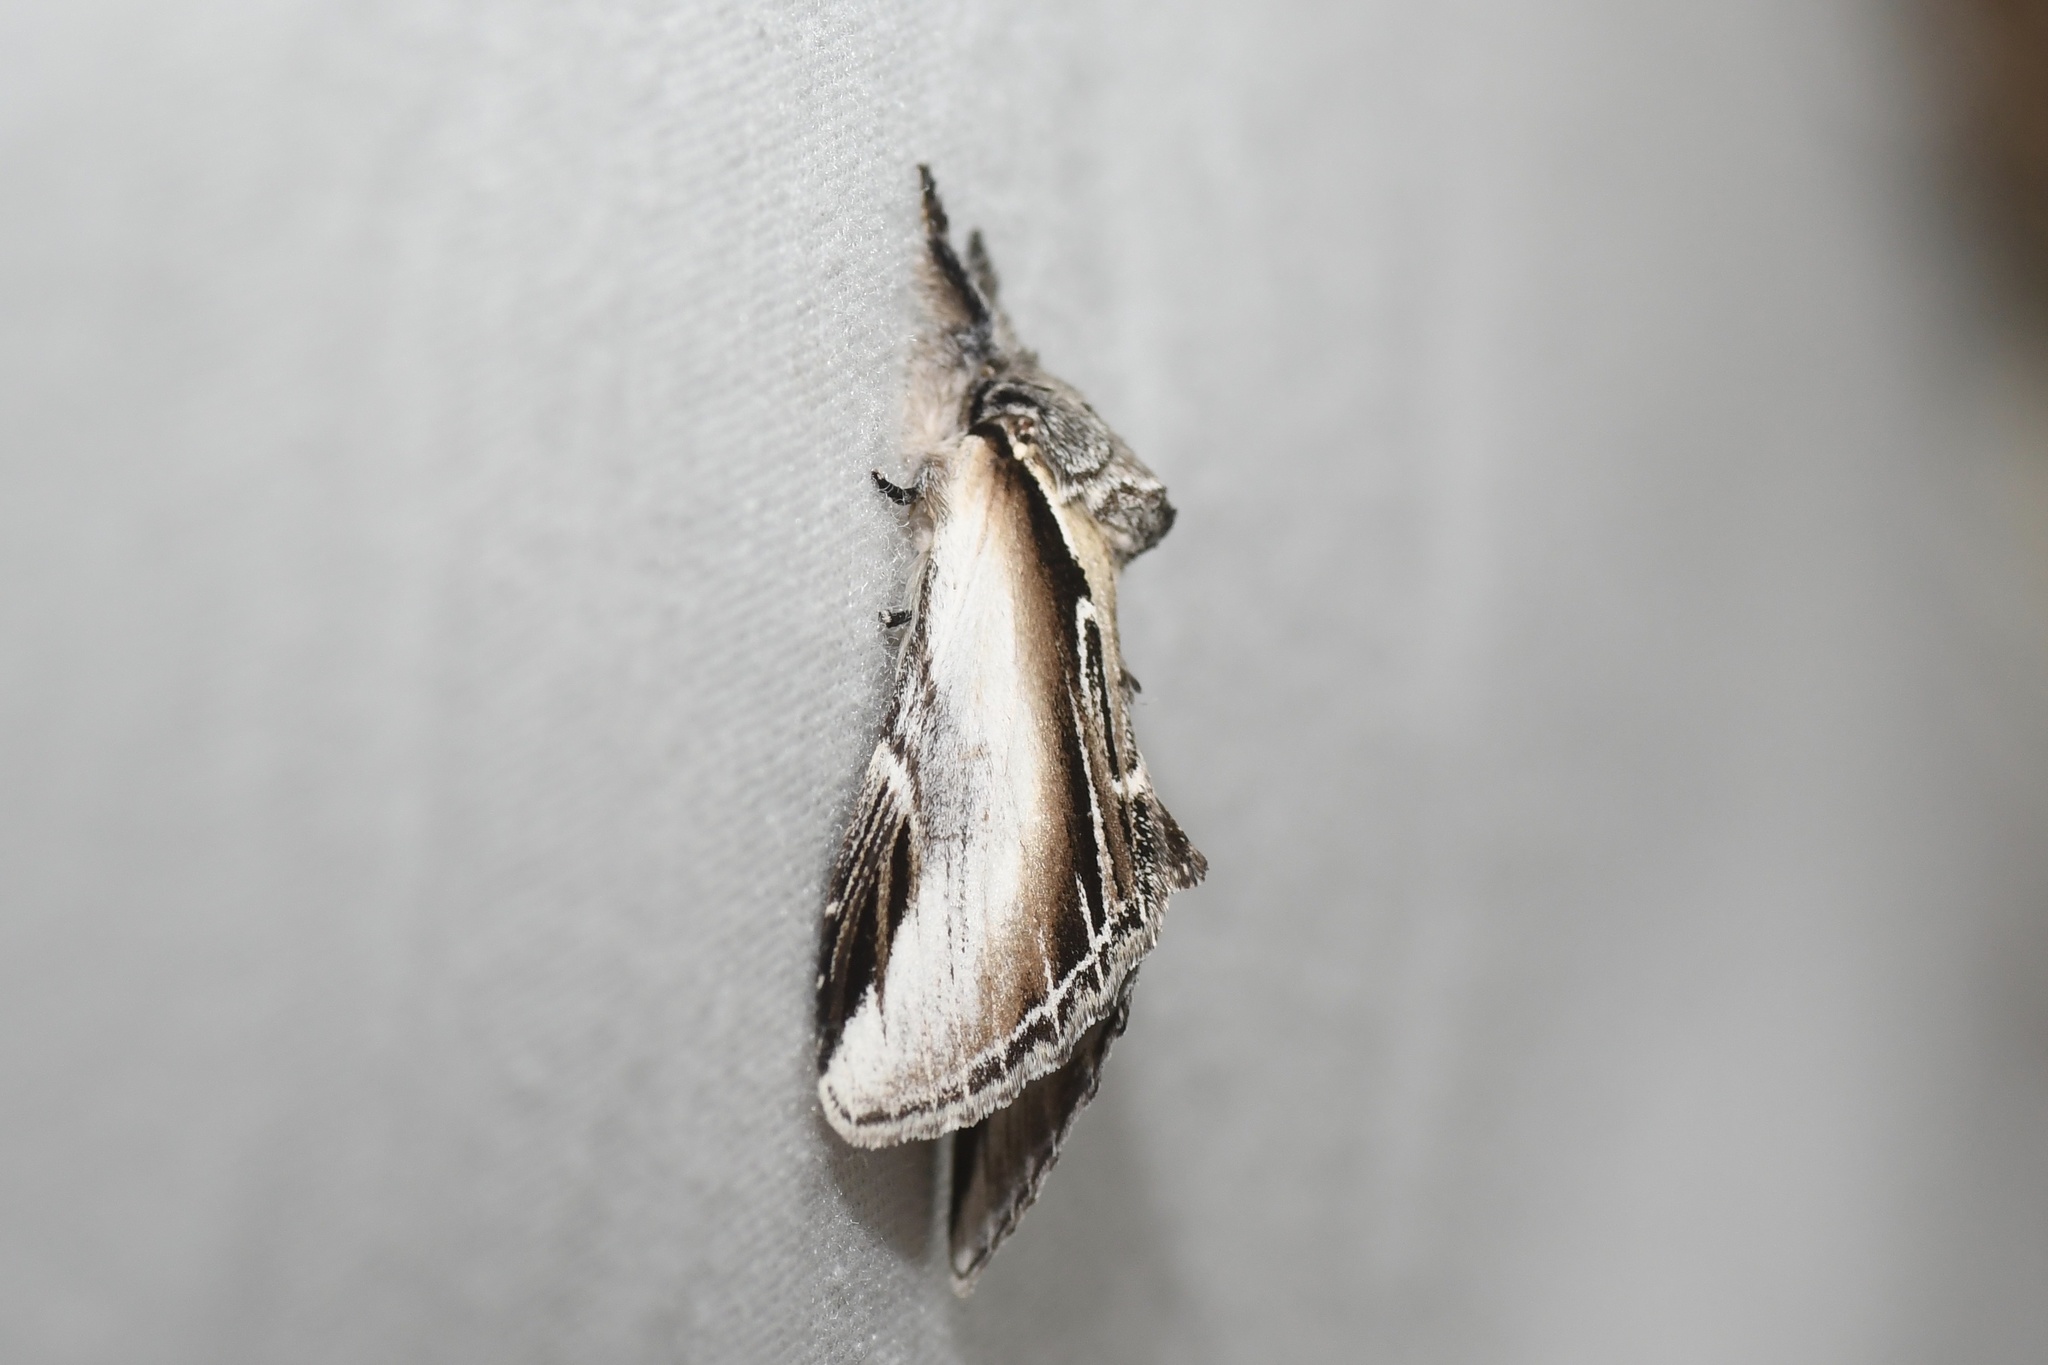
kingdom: Animalia
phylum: Arthropoda
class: Insecta
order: Lepidoptera
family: Notodontidae
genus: Pheosia
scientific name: Pheosia rimosa
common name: Black-rimmed prominent
